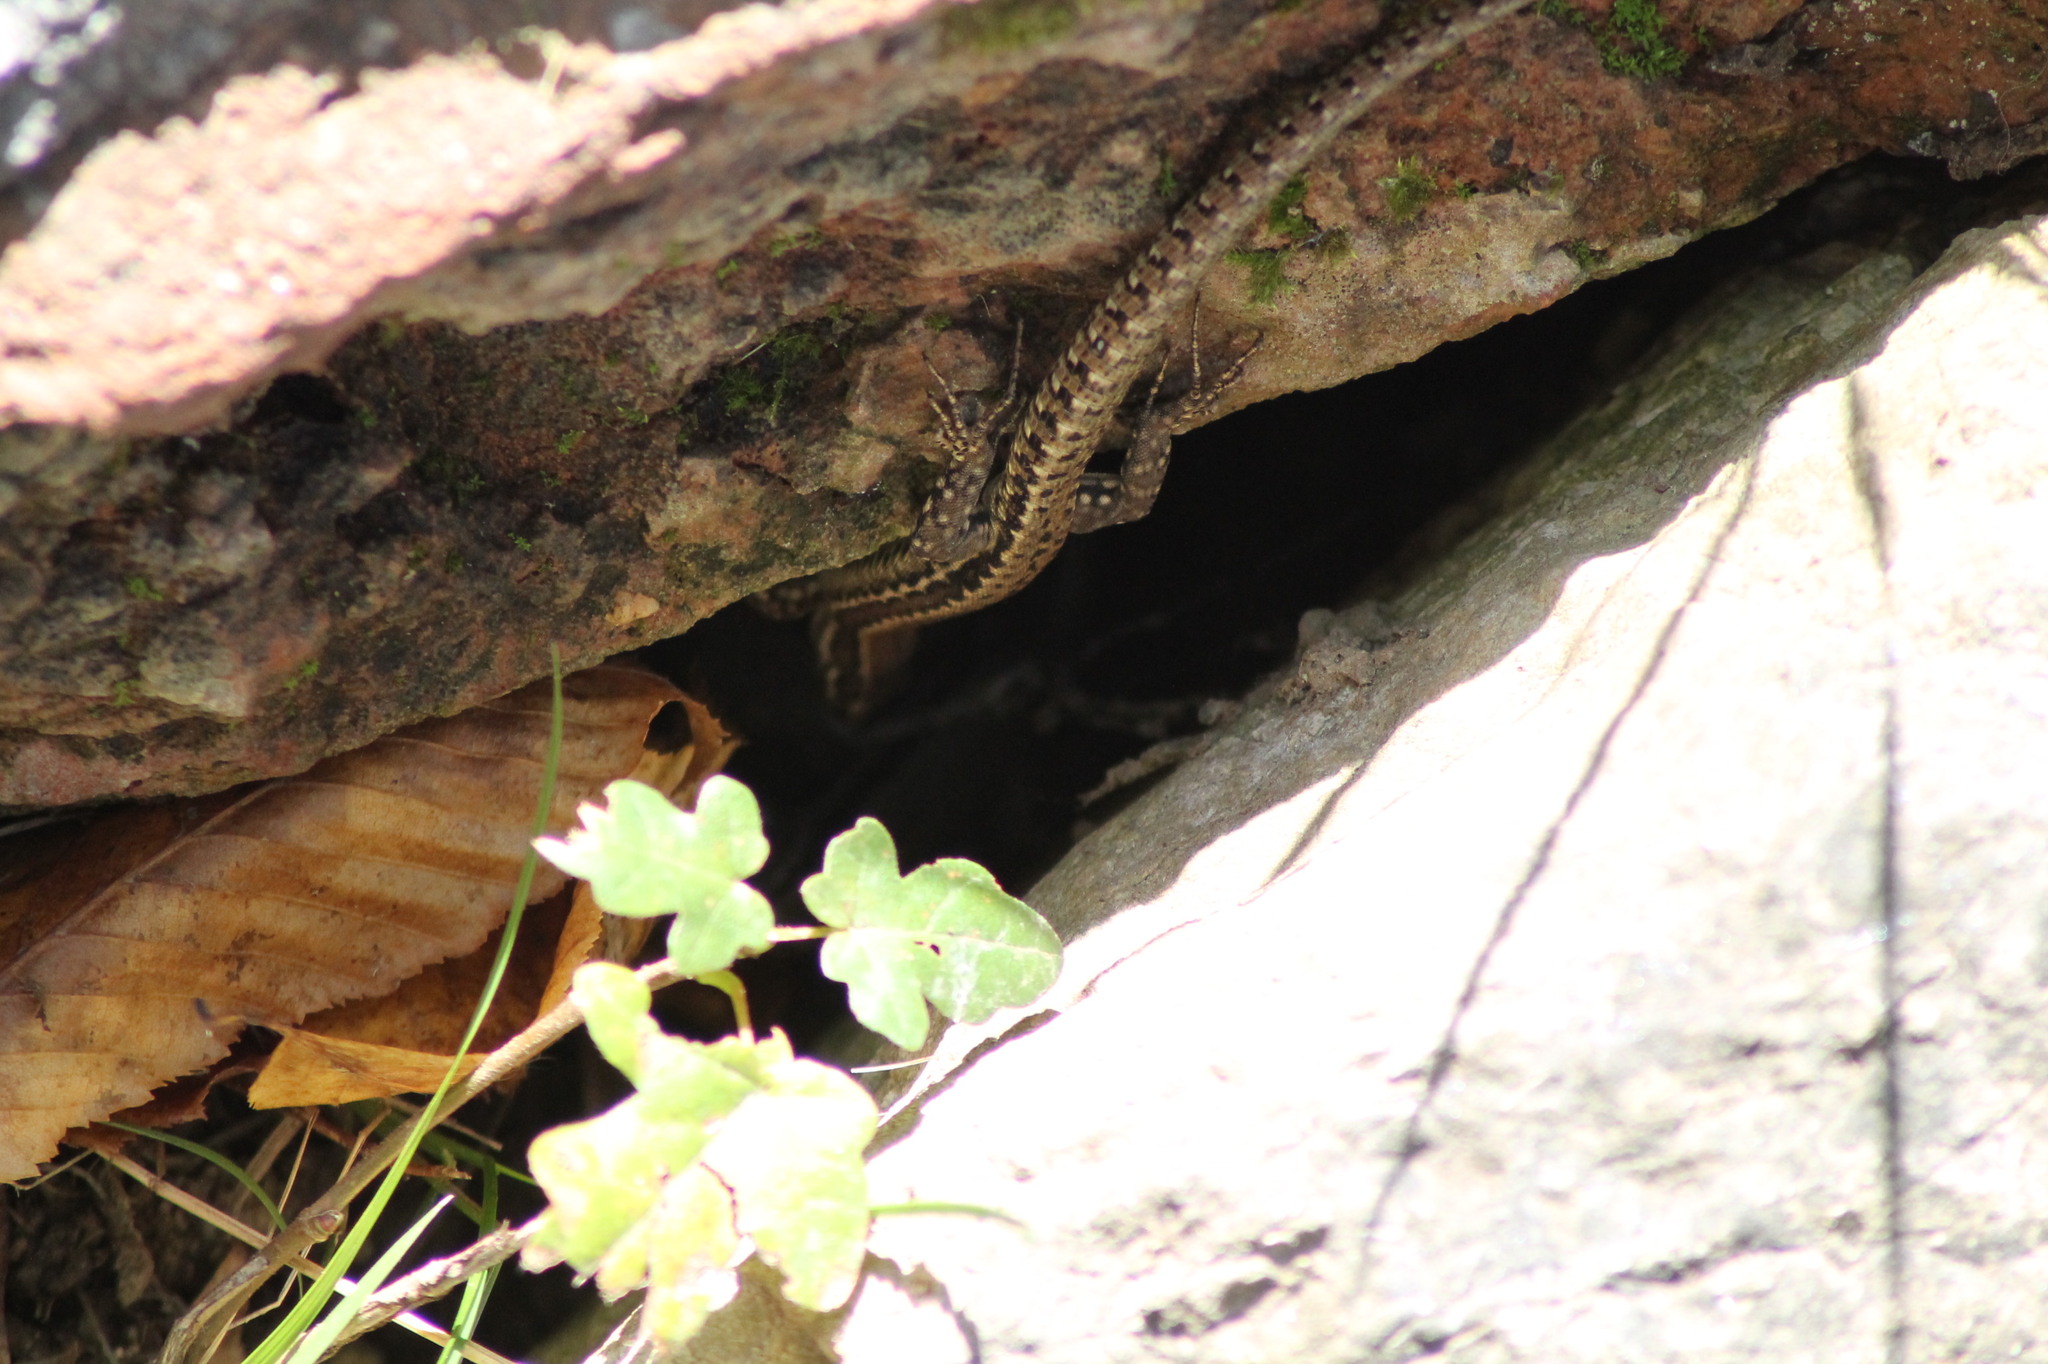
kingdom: Animalia
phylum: Chordata
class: Squamata
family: Lacertidae
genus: Podarcis
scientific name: Podarcis muralis
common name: Common wall lizard
